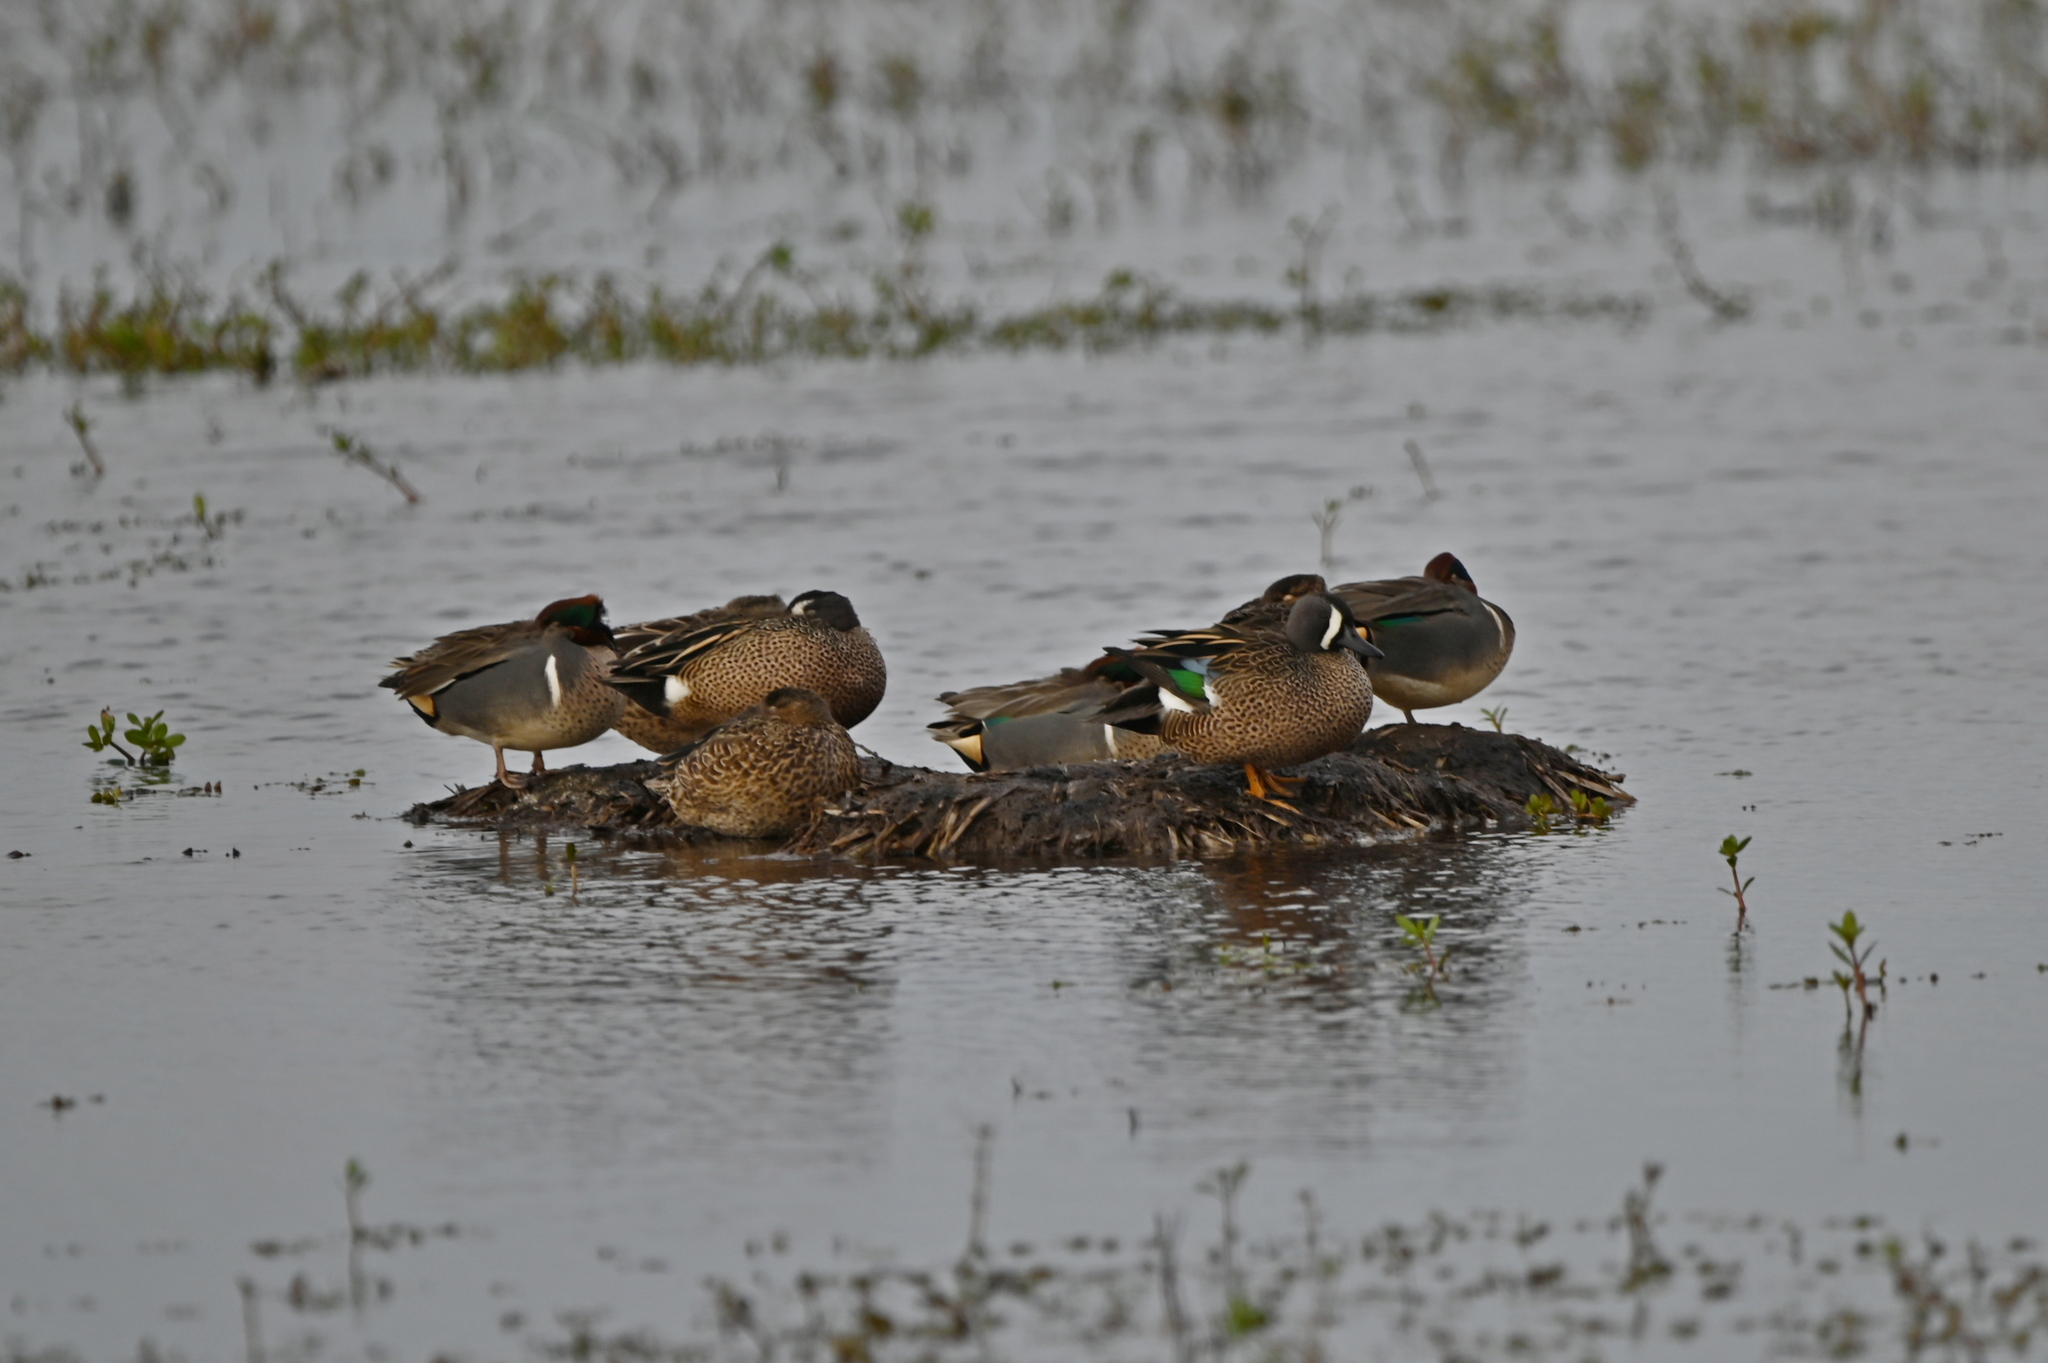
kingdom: Animalia
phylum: Chordata
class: Aves
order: Anseriformes
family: Anatidae
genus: Spatula
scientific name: Spatula discors
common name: Blue-winged teal
